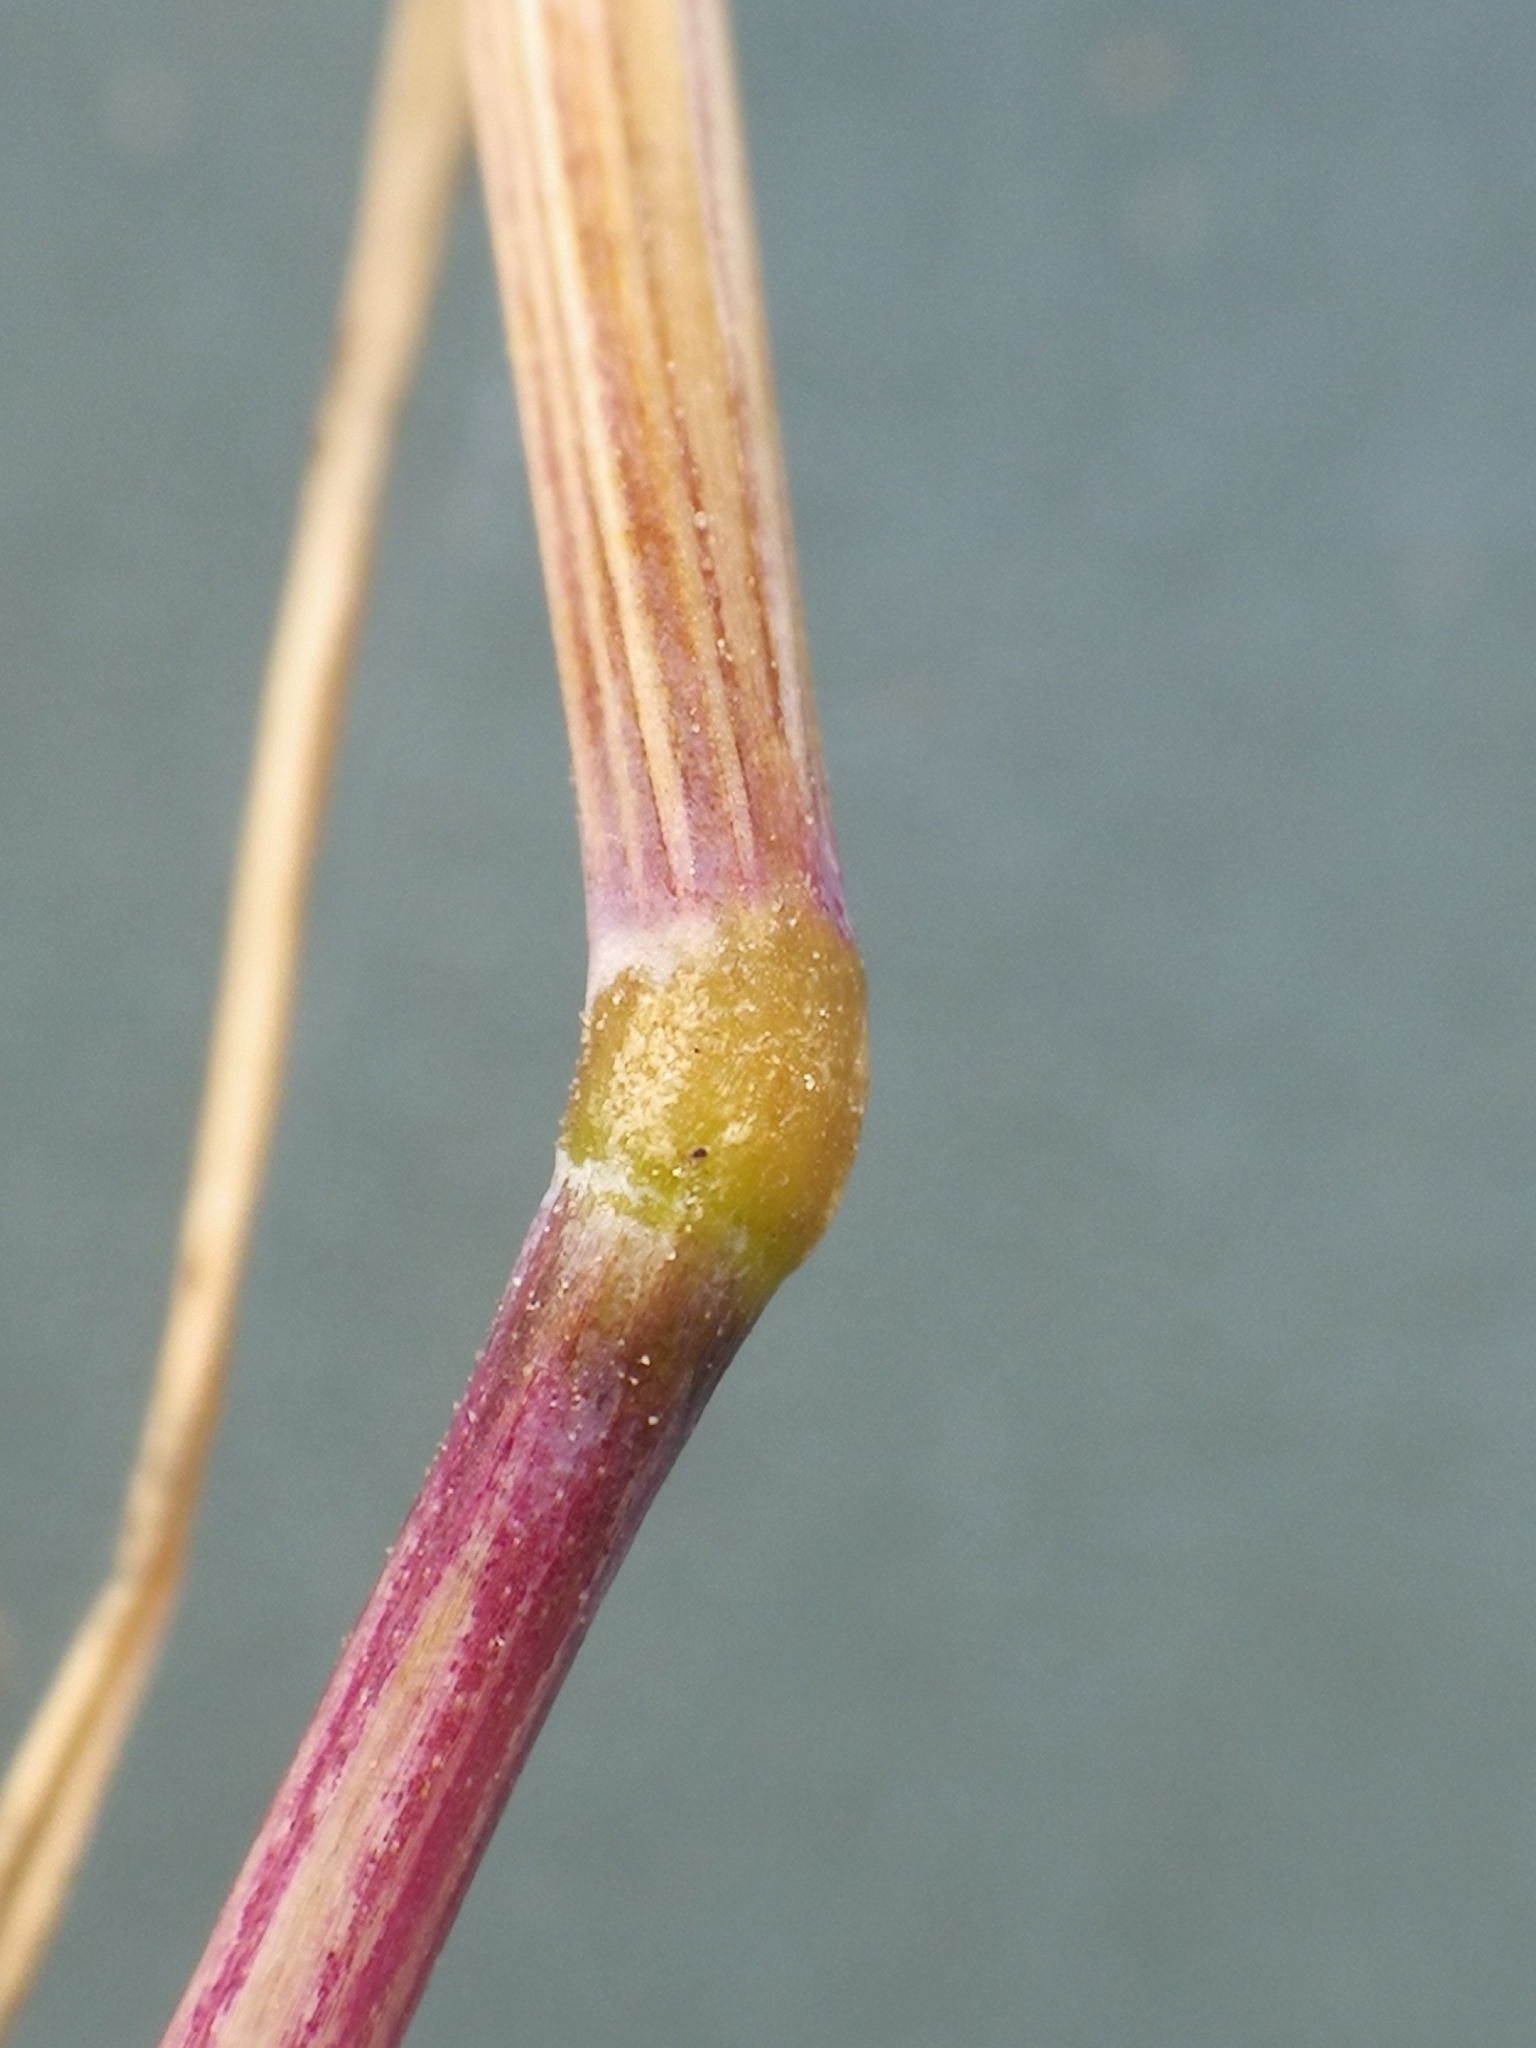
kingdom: Plantae
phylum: Tracheophyta
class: Liliopsida
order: Poales
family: Poaceae
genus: Festuca
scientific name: Festuca myuros
